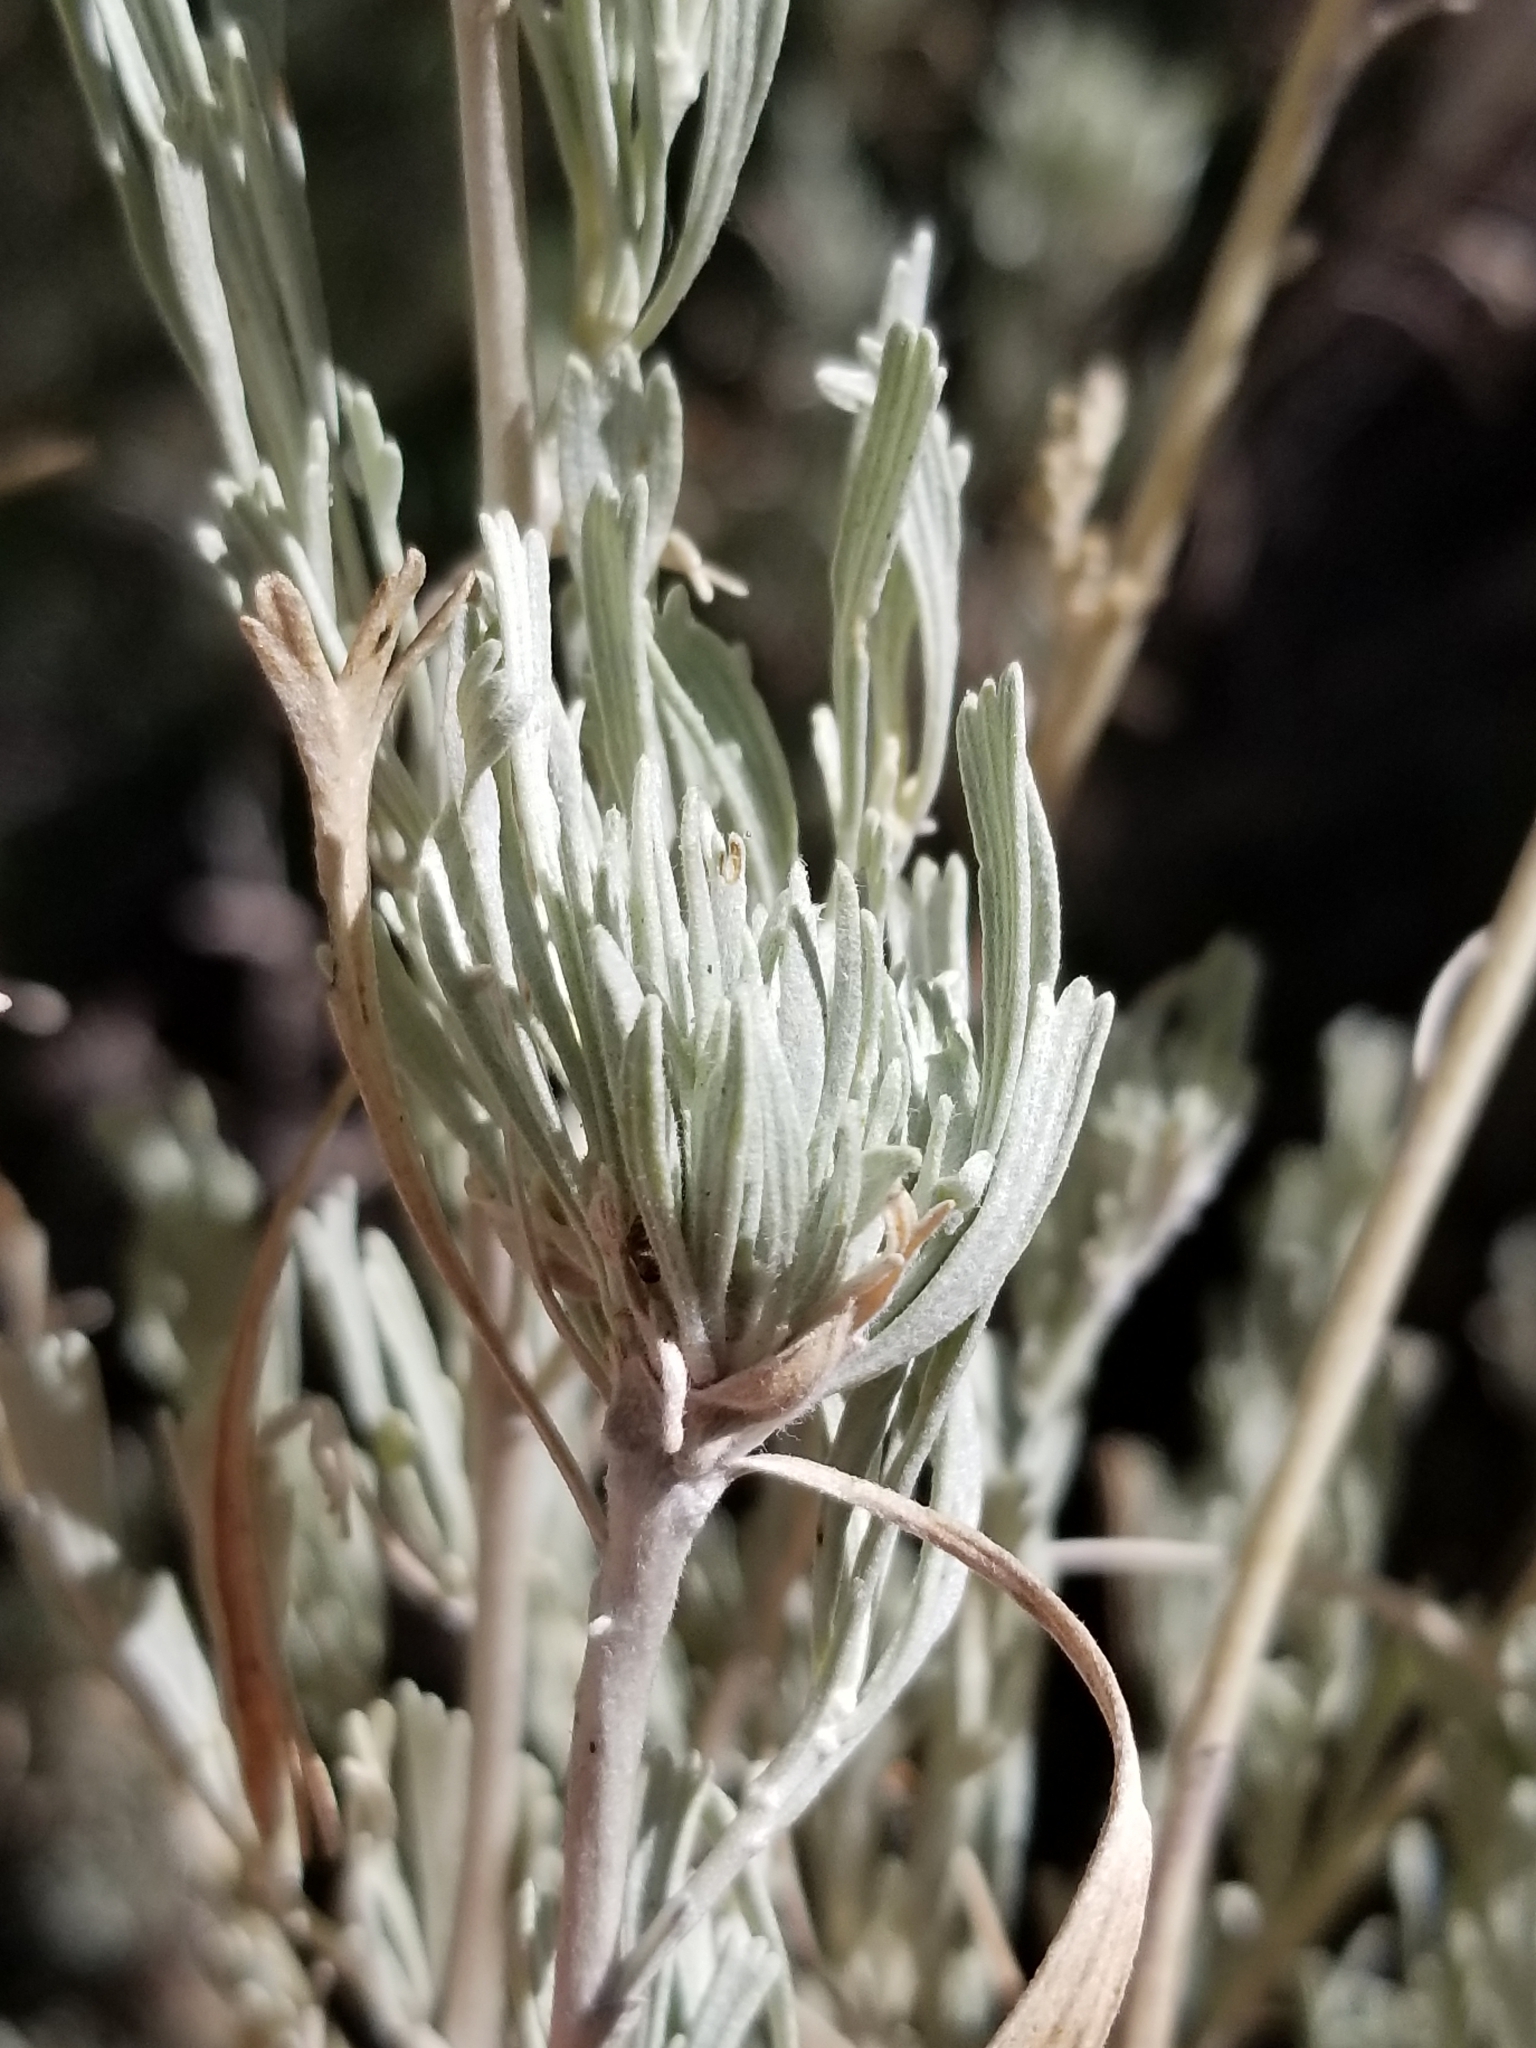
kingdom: Plantae
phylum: Tracheophyta
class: Magnoliopsida
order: Asterales
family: Asteraceae
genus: Artemisia
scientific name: Artemisia tridentata
